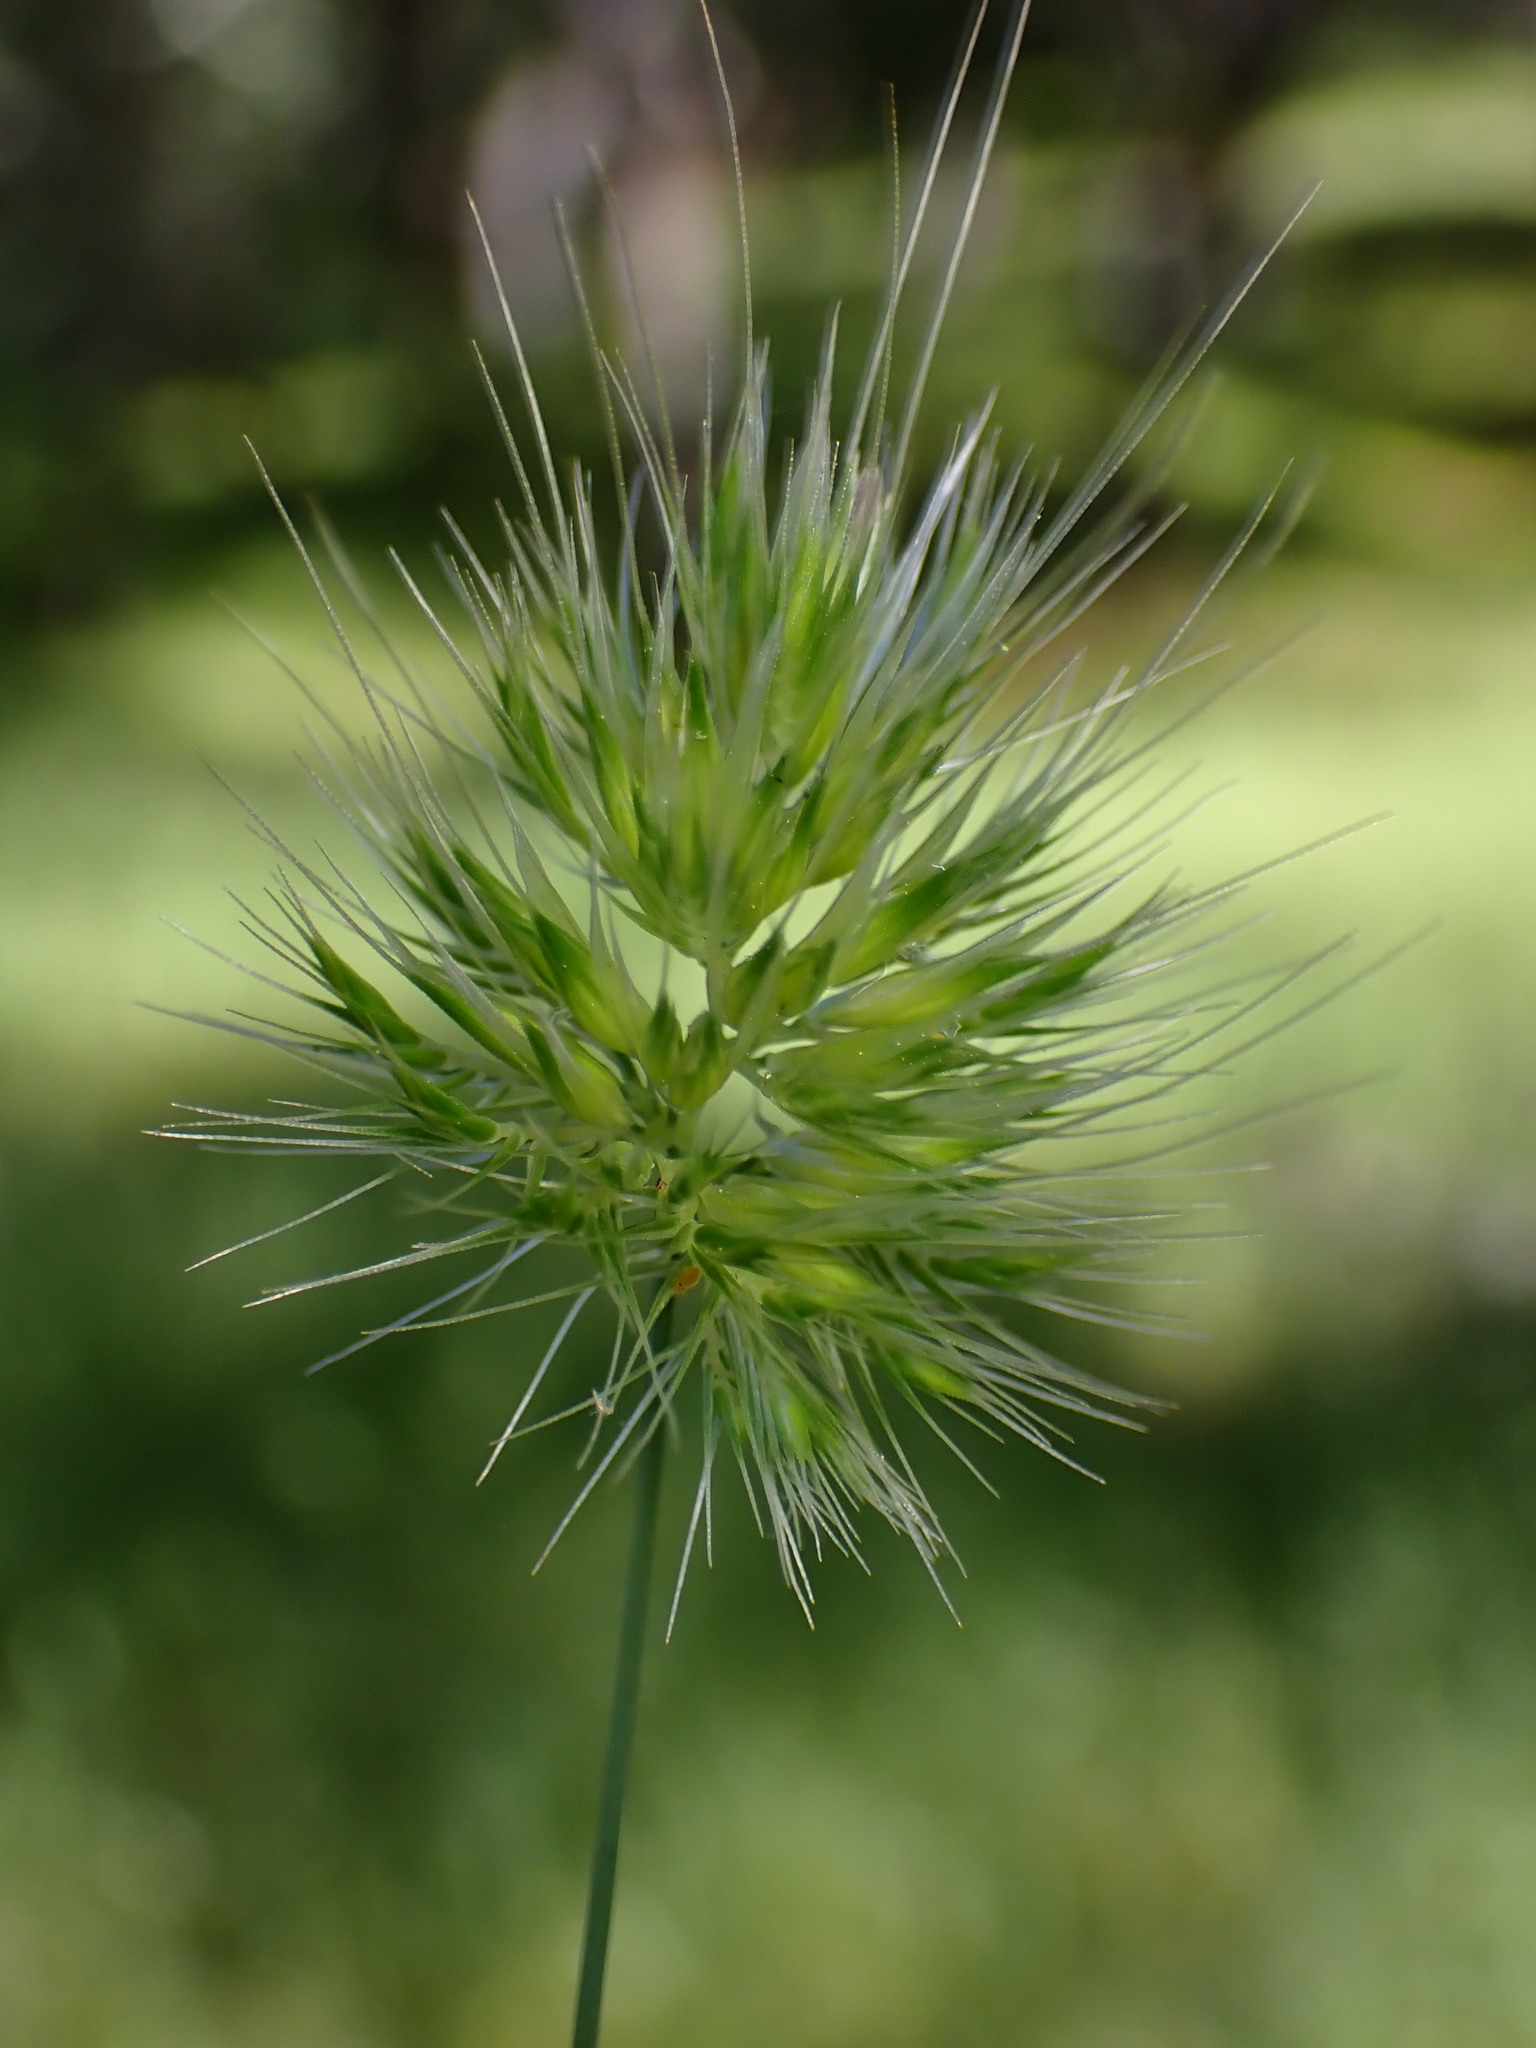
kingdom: Plantae
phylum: Tracheophyta
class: Liliopsida
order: Poales
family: Poaceae
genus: Cynosurus
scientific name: Cynosurus echinatus
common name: Rough dog's-tail
